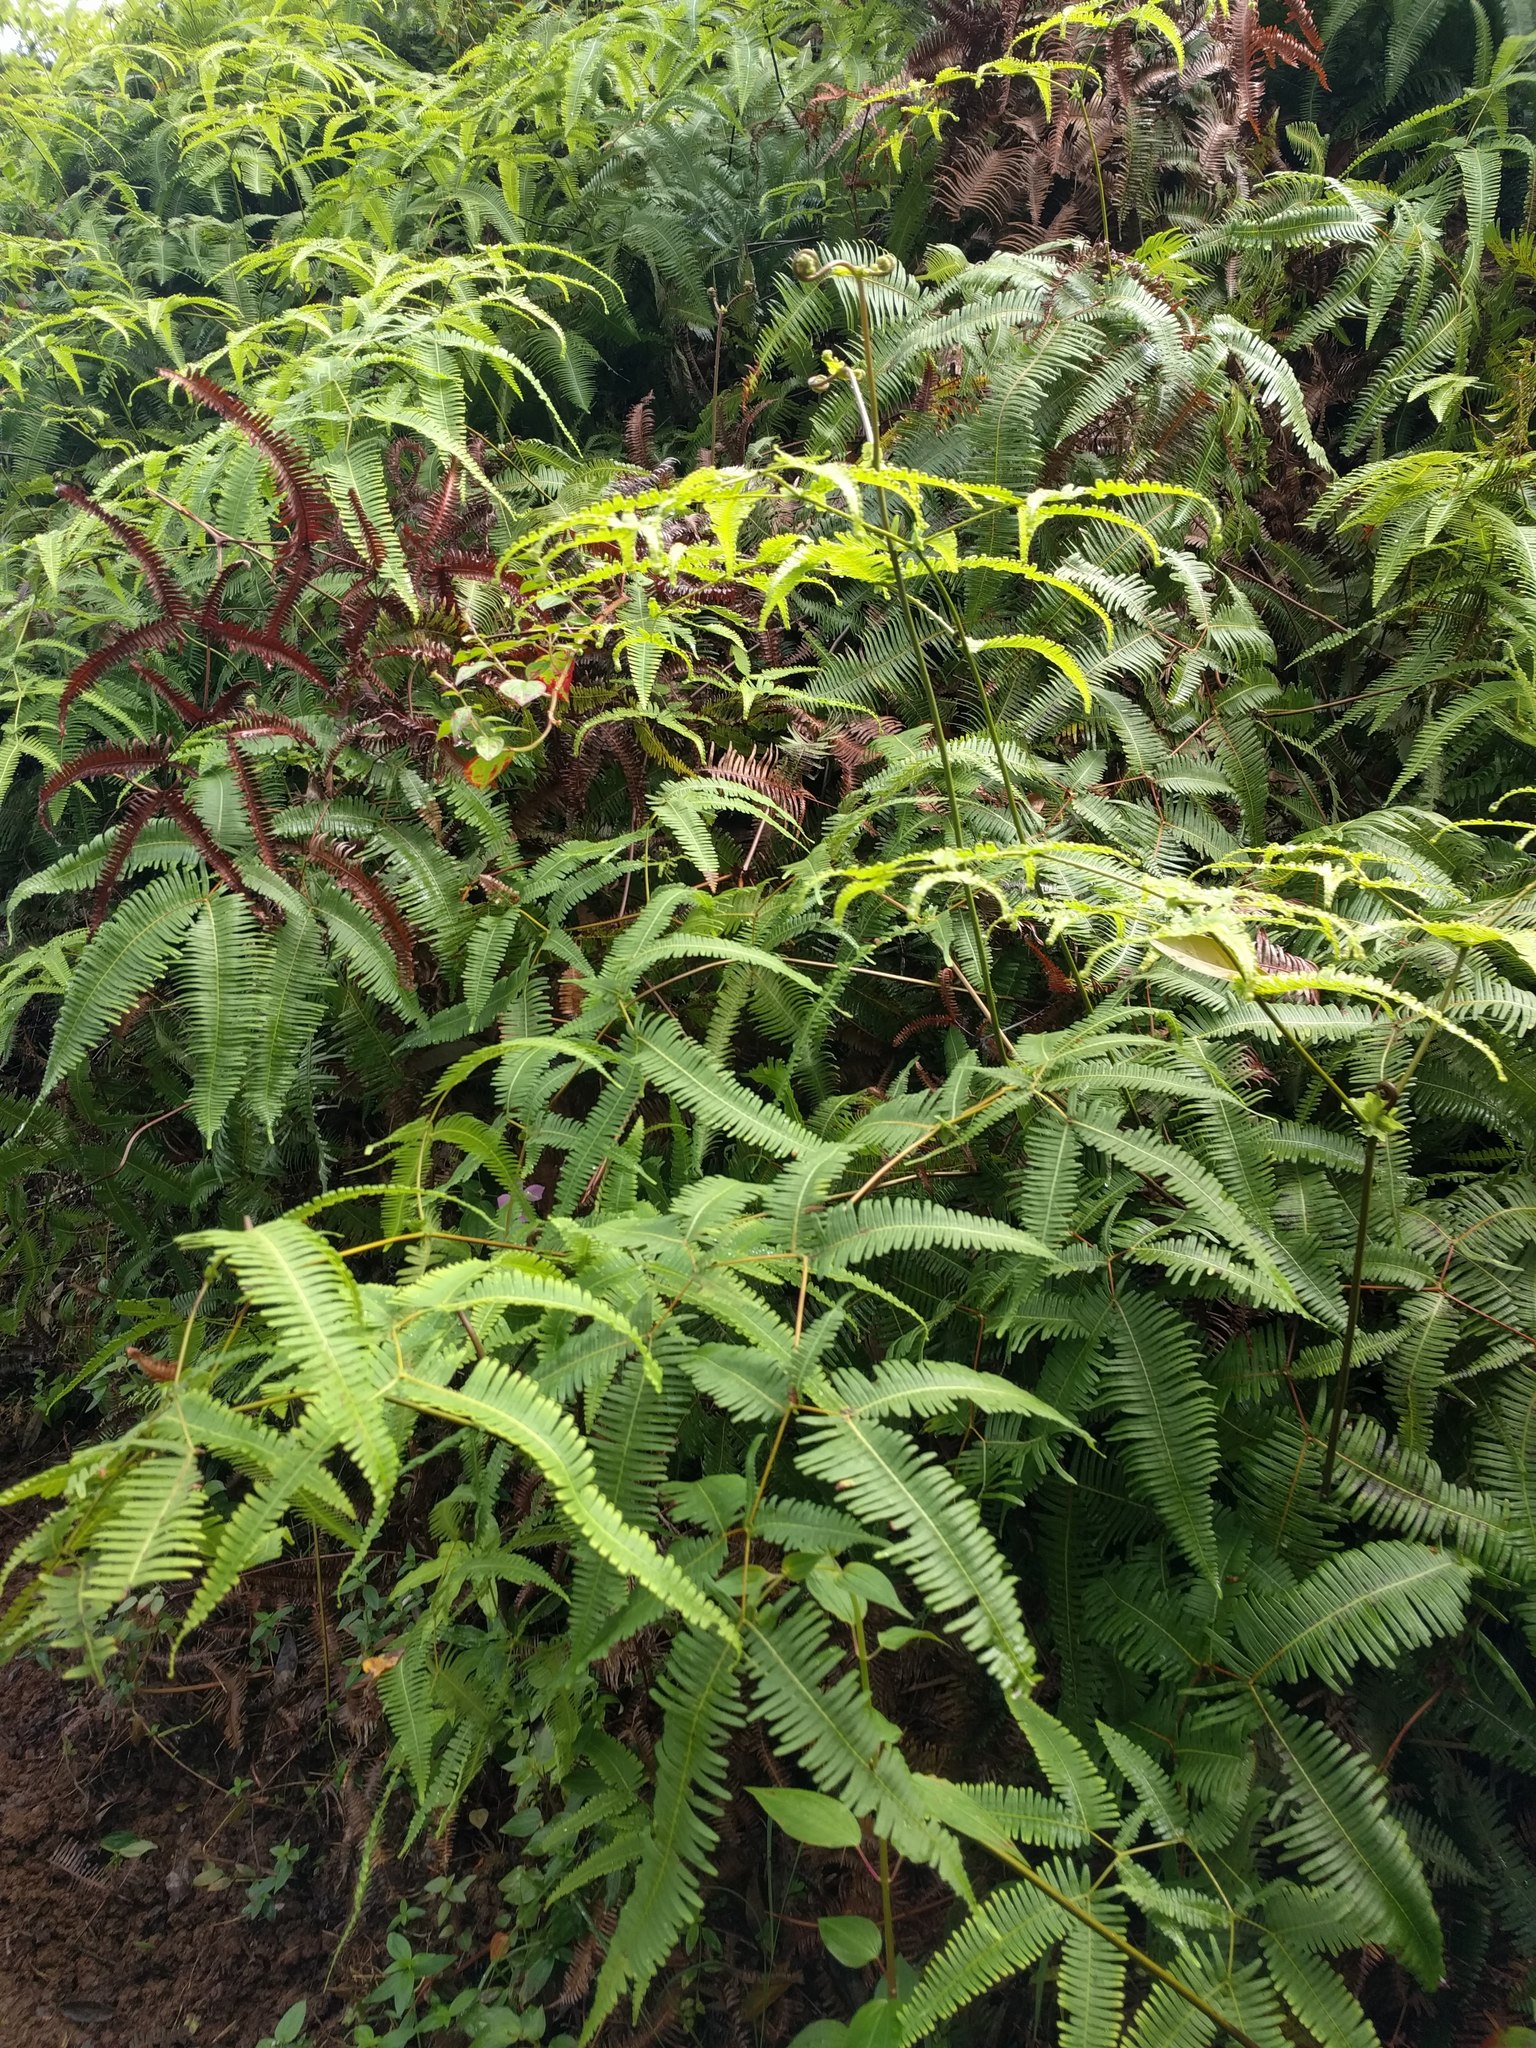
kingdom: Plantae
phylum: Tracheophyta
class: Polypodiopsida
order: Gleicheniales
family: Gleicheniaceae
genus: Dicranopteris
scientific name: Dicranopteris linearis
